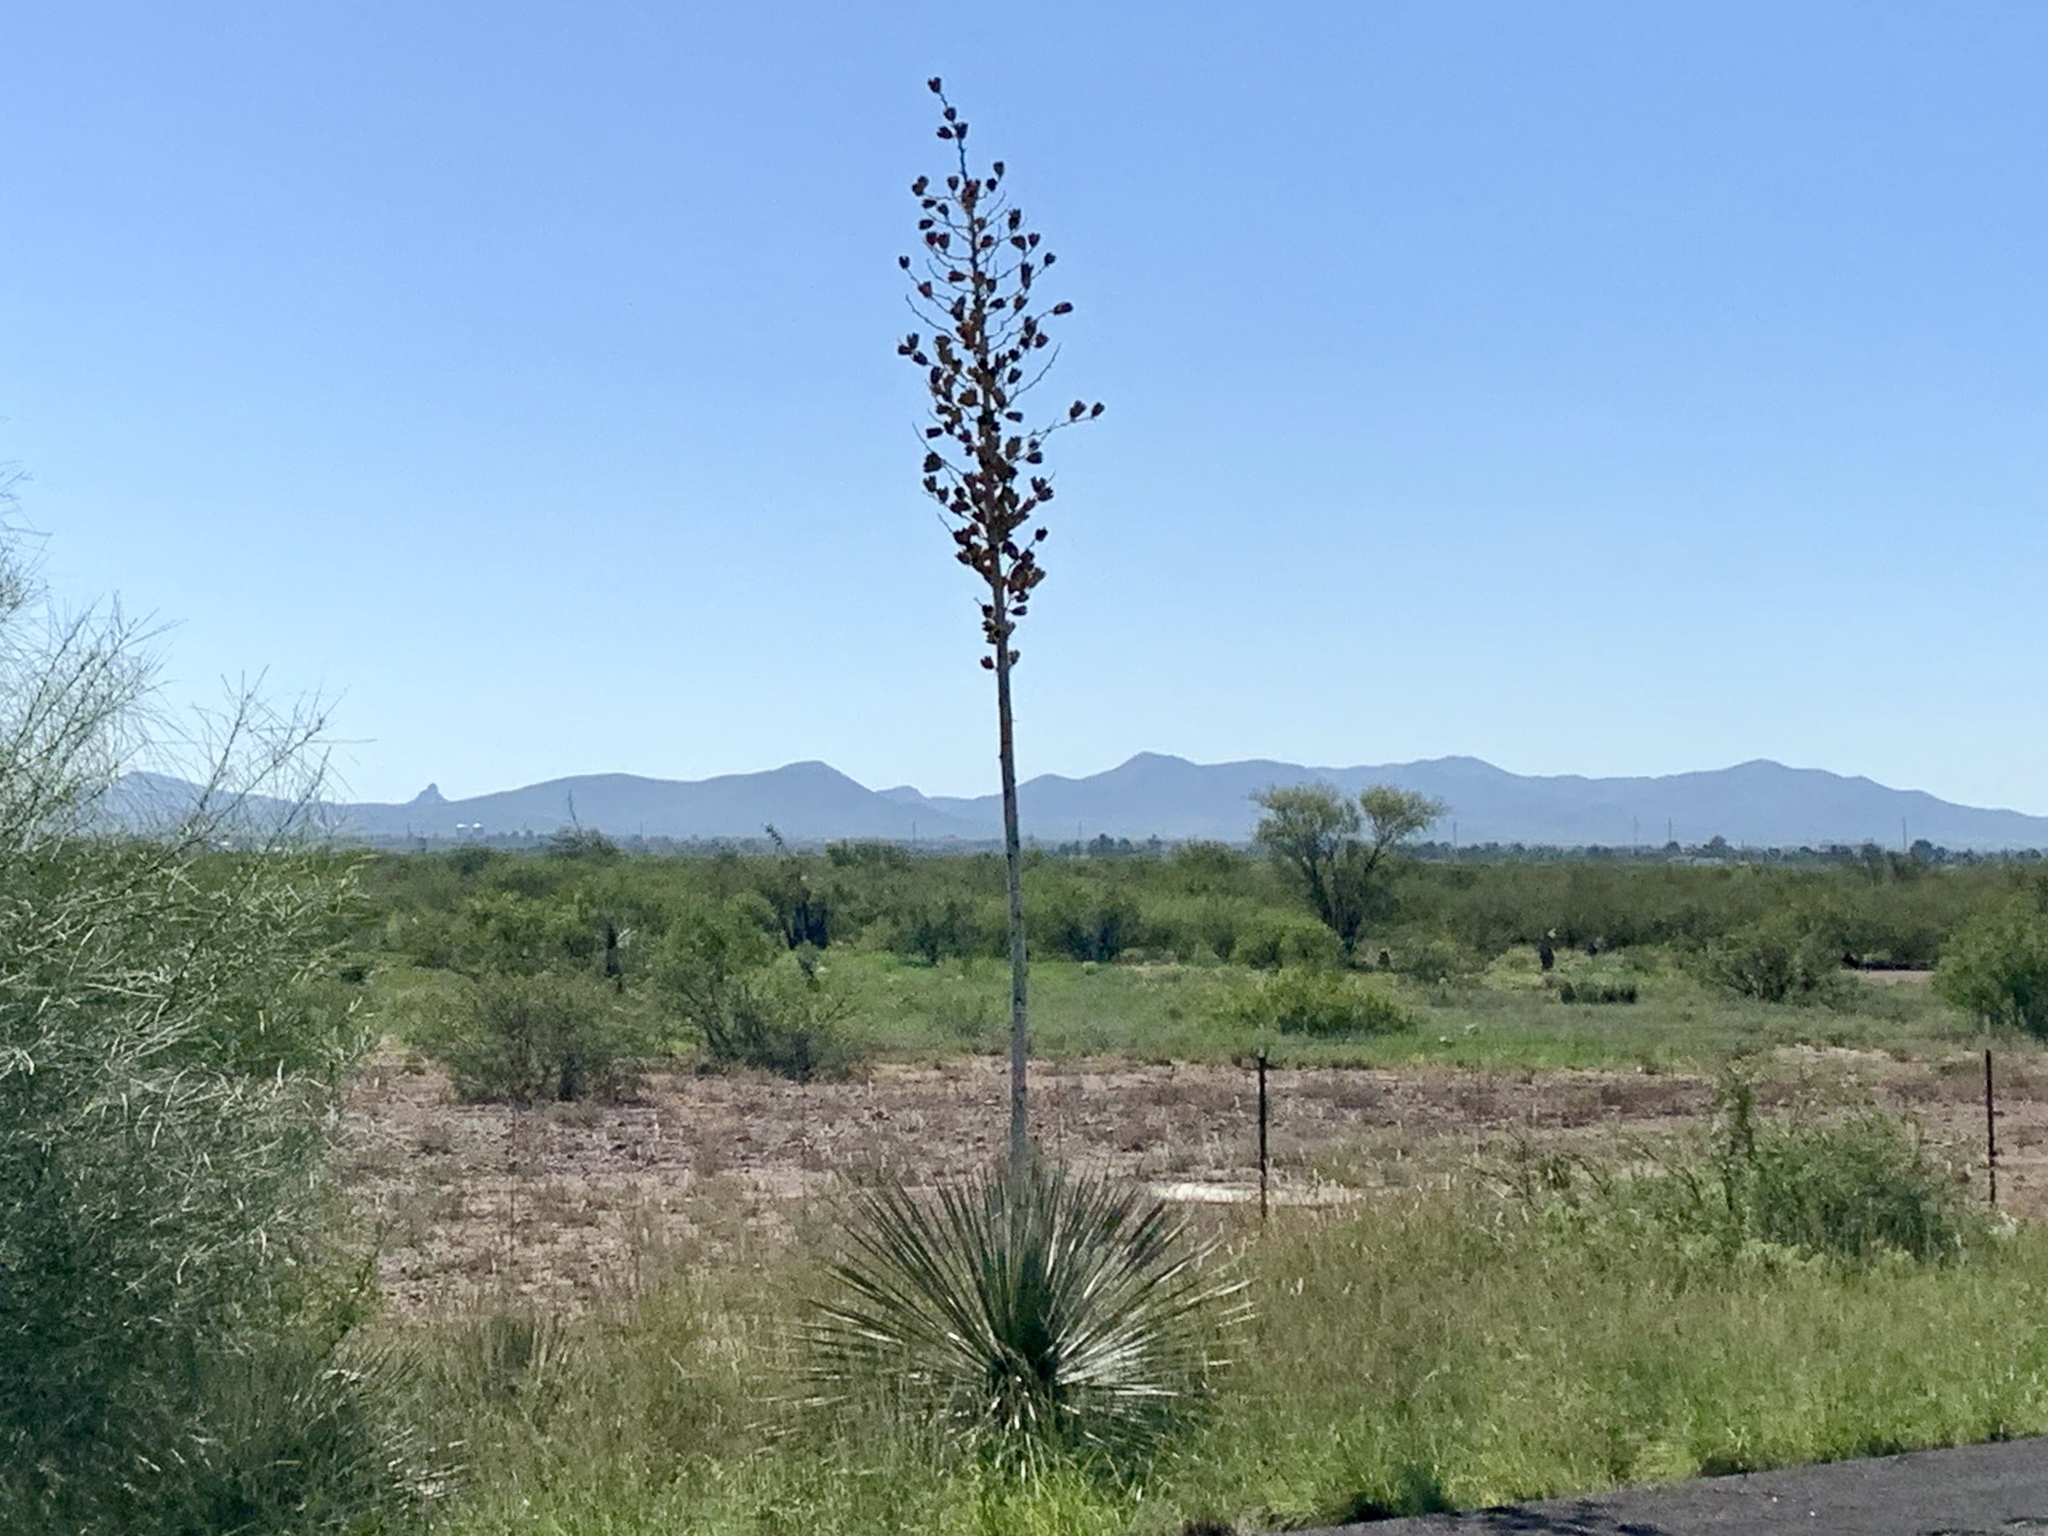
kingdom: Plantae
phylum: Tracheophyta
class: Liliopsida
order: Asparagales
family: Asparagaceae
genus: Yucca
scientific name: Yucca elata
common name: Palmella
